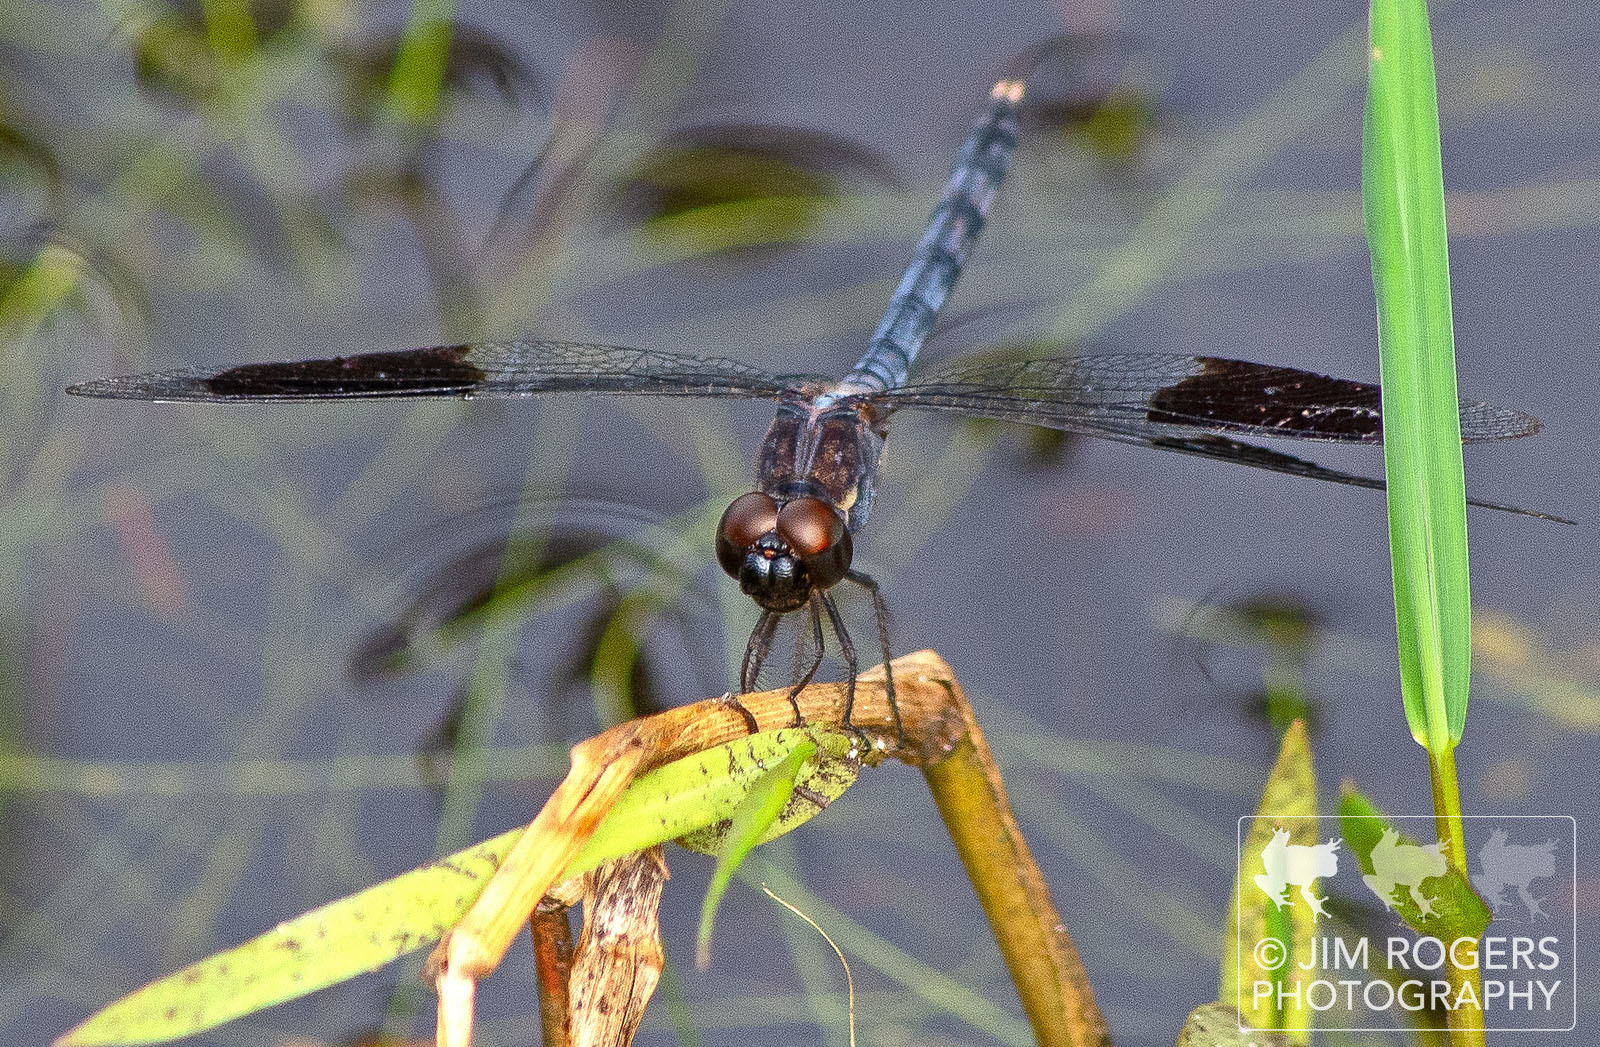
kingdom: Animalia
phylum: Arthropoda
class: Insecta
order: Odonata
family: Libellulidae
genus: Erythrodiplax
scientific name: Erythrodiplax umbrata
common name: Band-winged dragonlet
